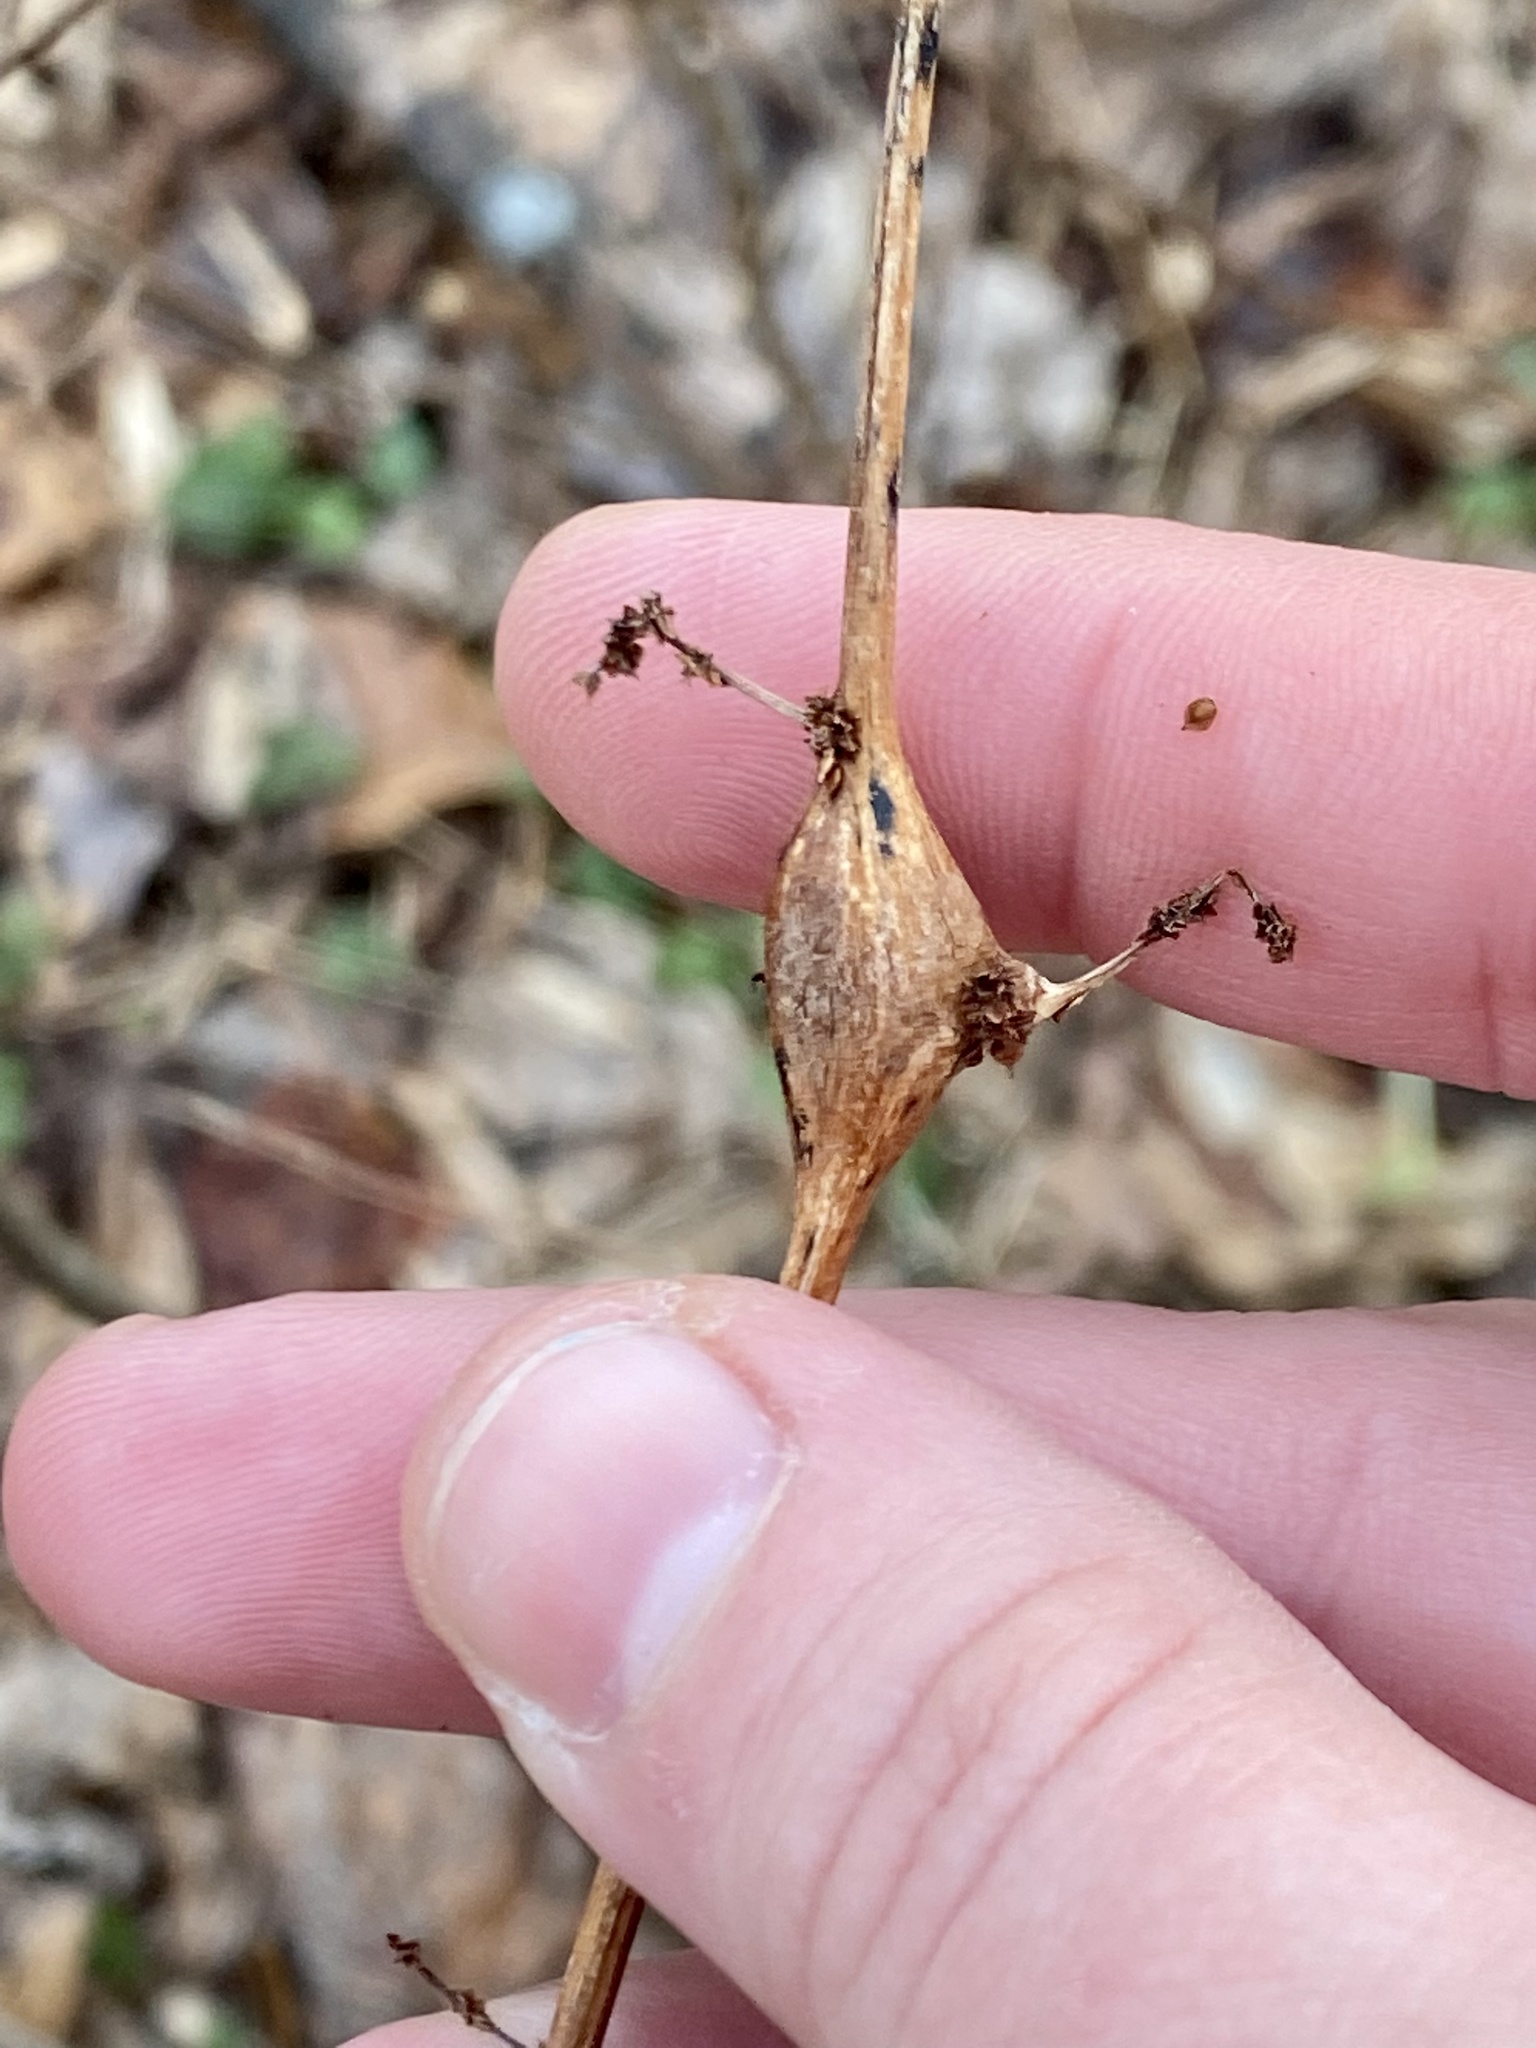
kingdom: Animalia
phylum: Arthropoda
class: Insecta
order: Diptera
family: Cecidomyiidae
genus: Neolasioptera
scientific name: Neolasioptera boehmeriae
